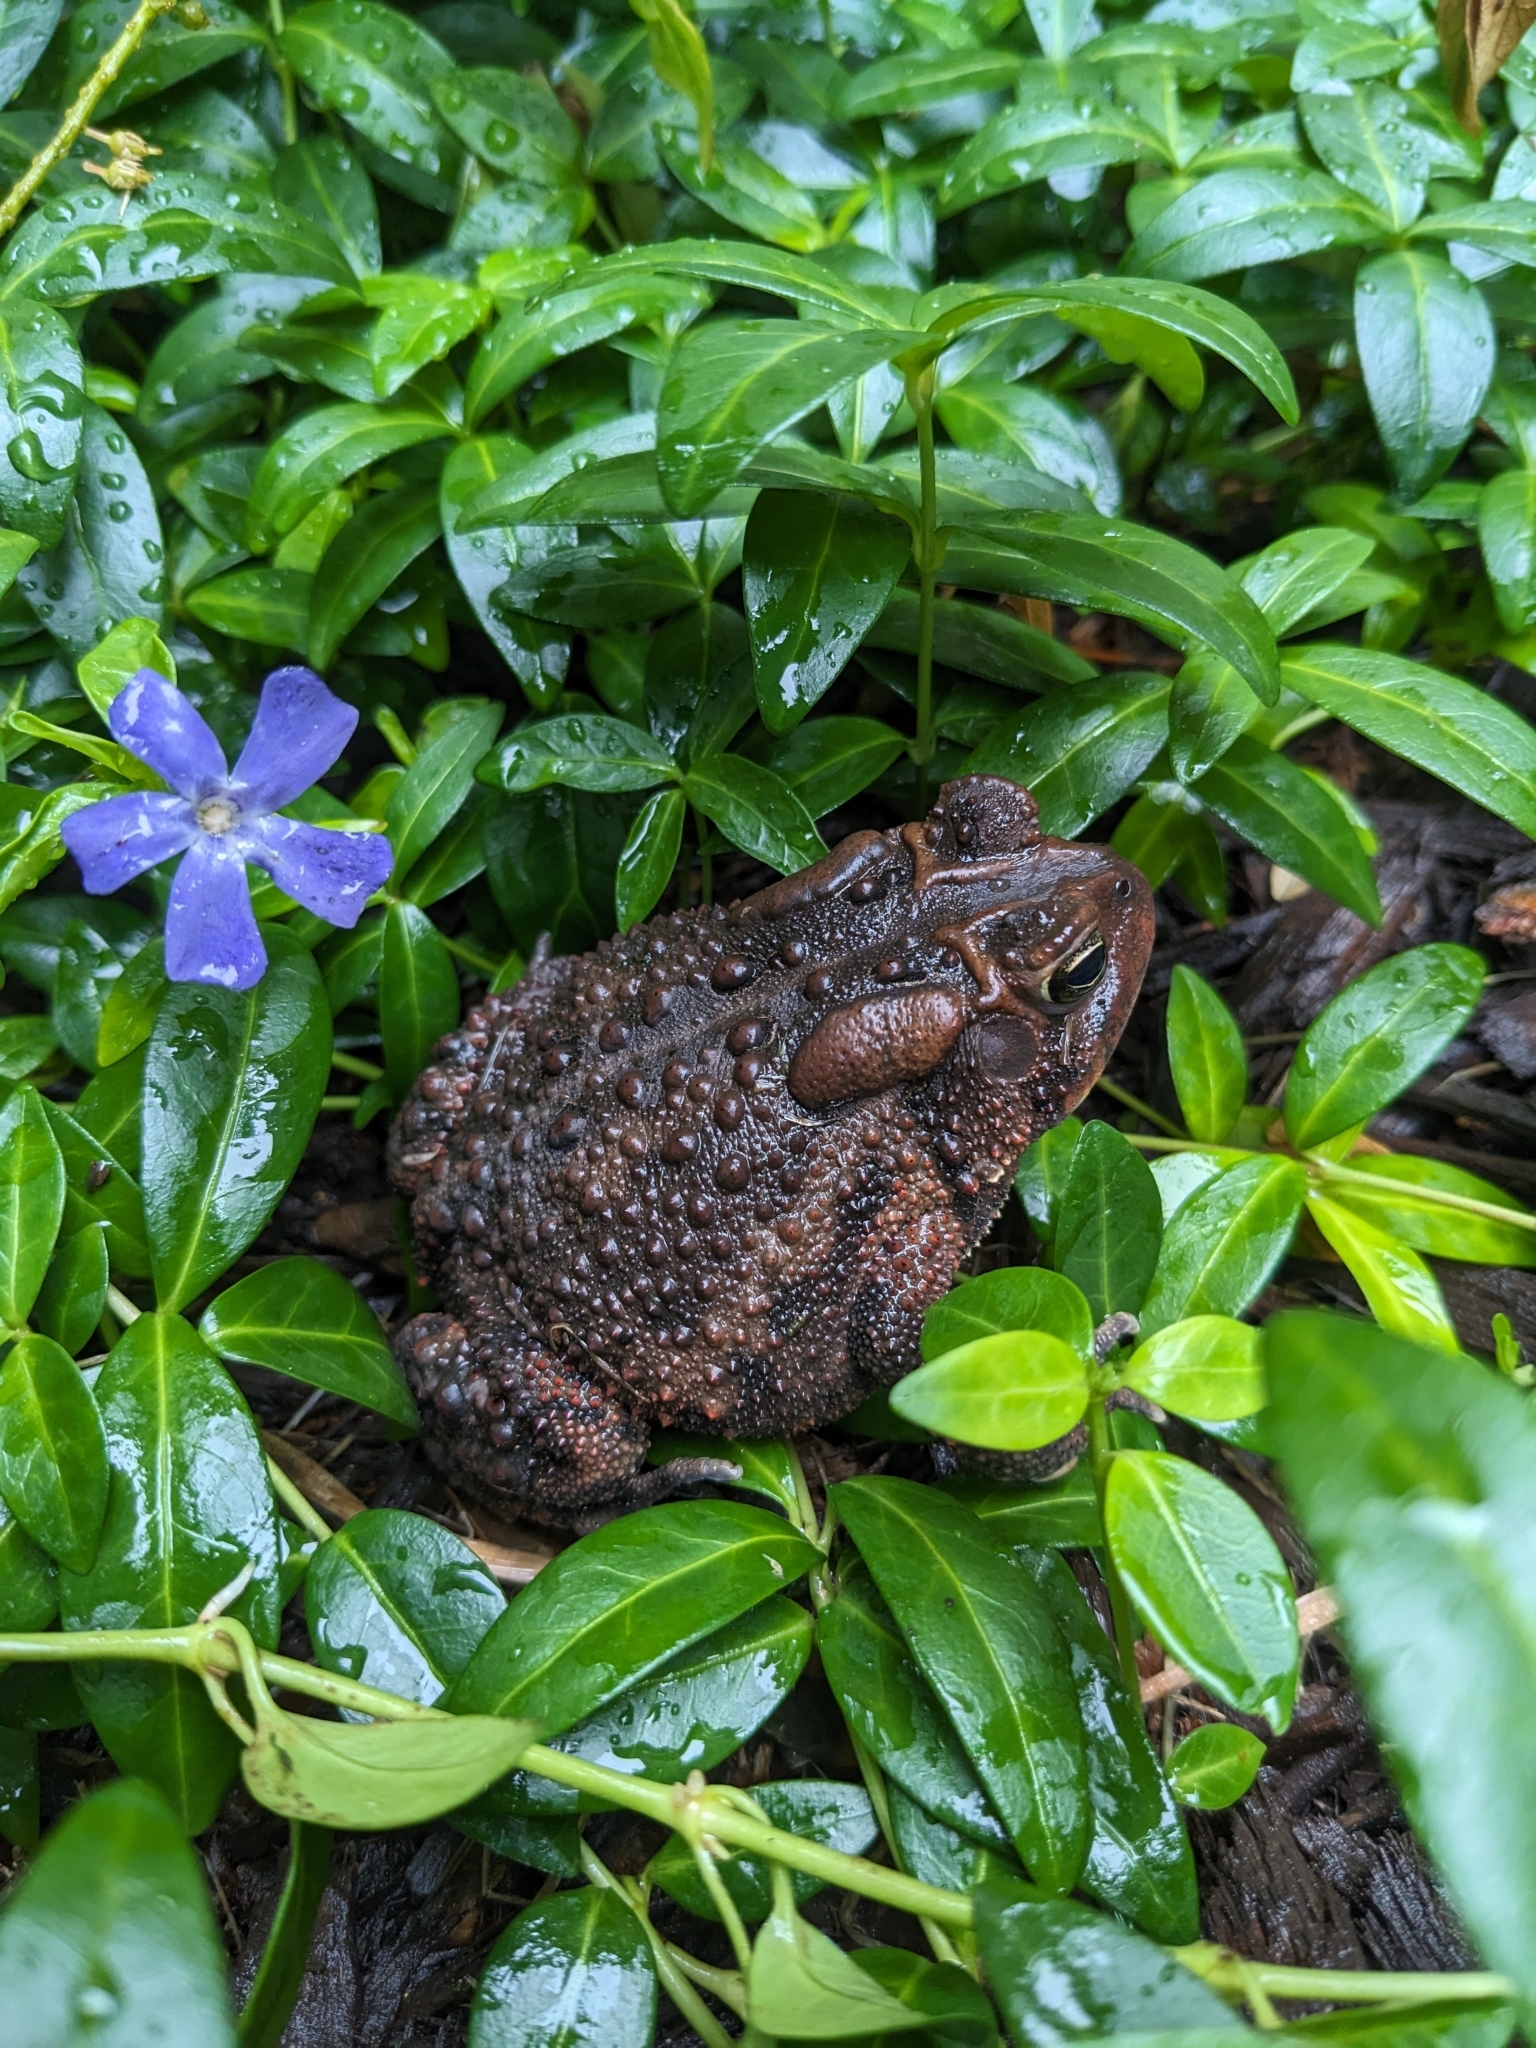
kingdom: Animalia
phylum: Chordata
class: Amphibia
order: Anura
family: Bufonidae
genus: Anaxyrus
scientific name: Anaxyrus americanus
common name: American toad
